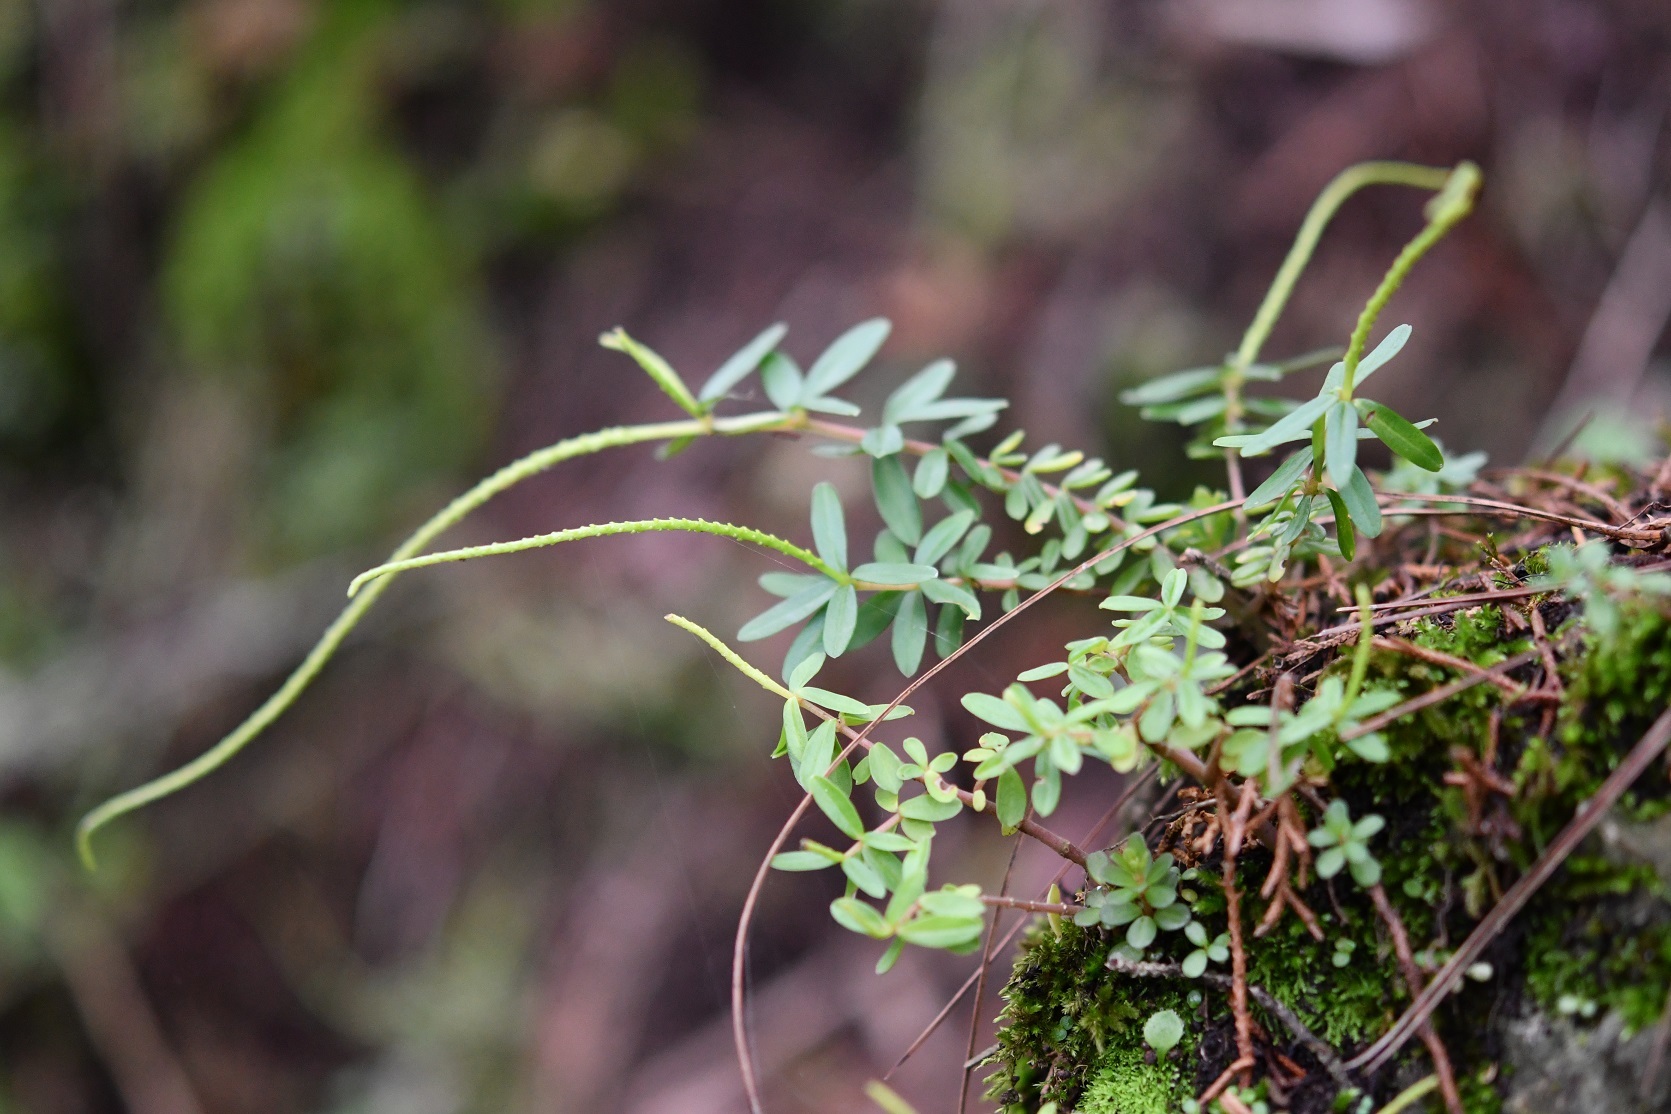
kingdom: Plantae
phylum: Tracheophyta
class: Magnoliopsida
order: Piperales
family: Piperaceae
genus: Peperomia
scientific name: Peperomia leptophylla
